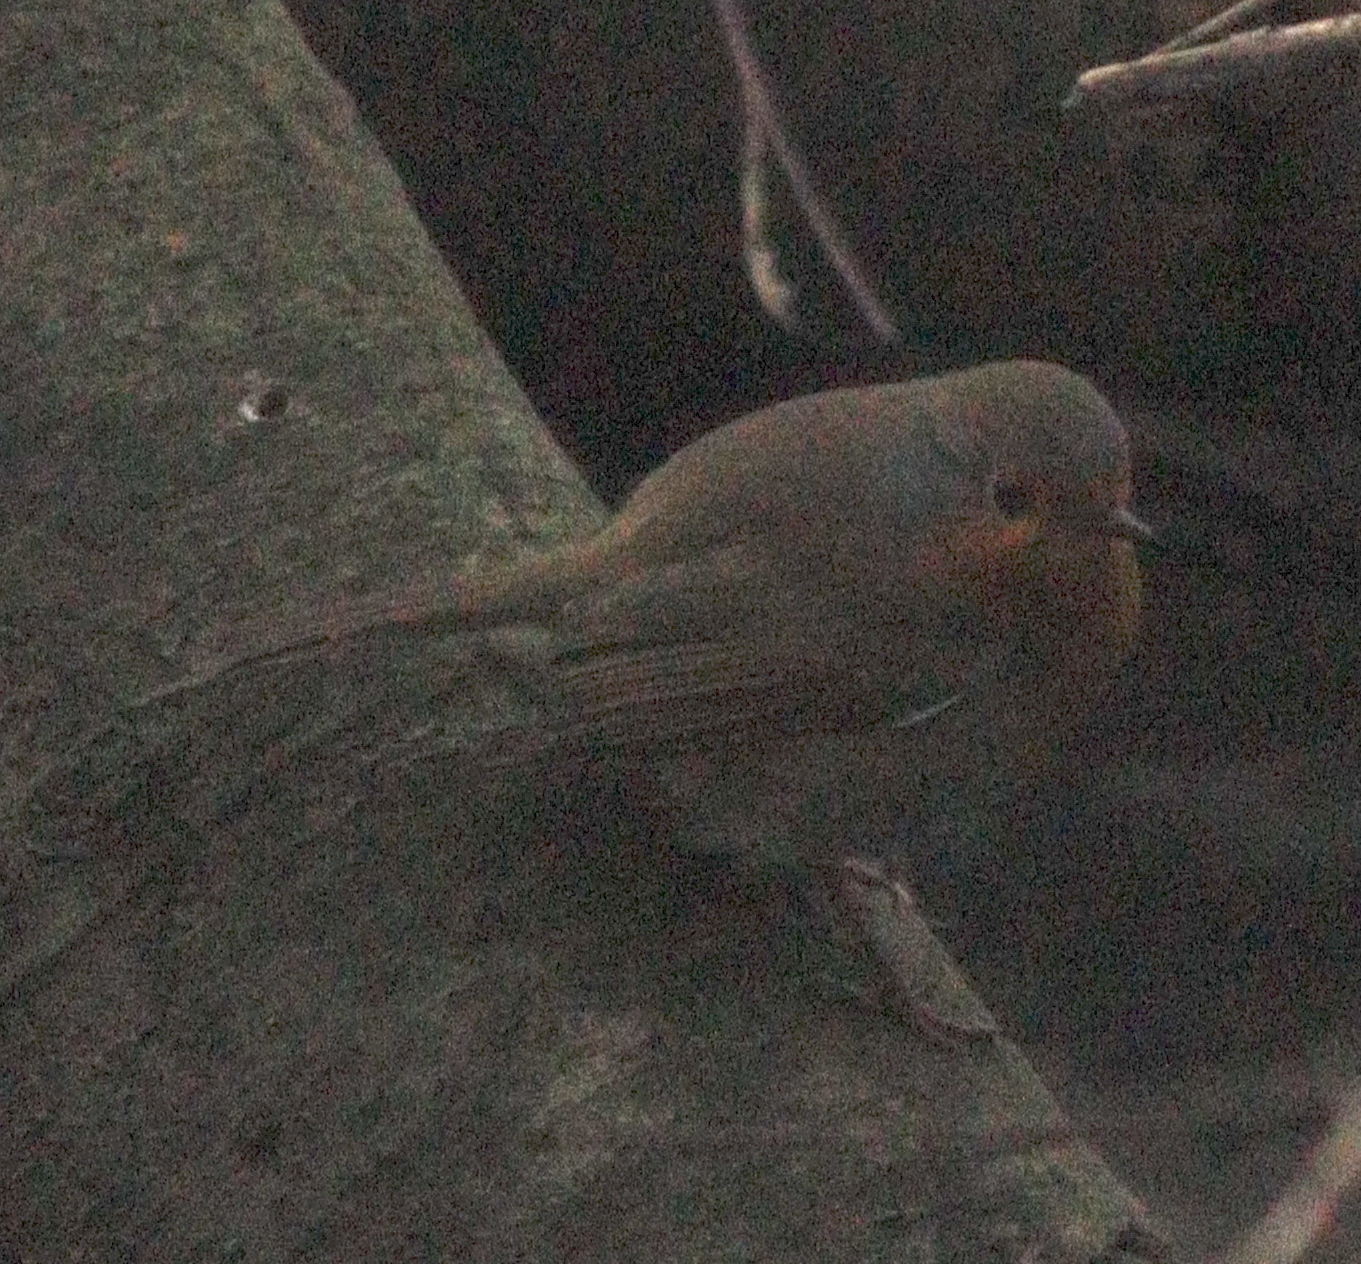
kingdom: Animalia
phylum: Chordata
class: Aves
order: Passeriformes
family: Muscicapidae
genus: Erithacus
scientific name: Erithacus rubecula
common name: European robin
